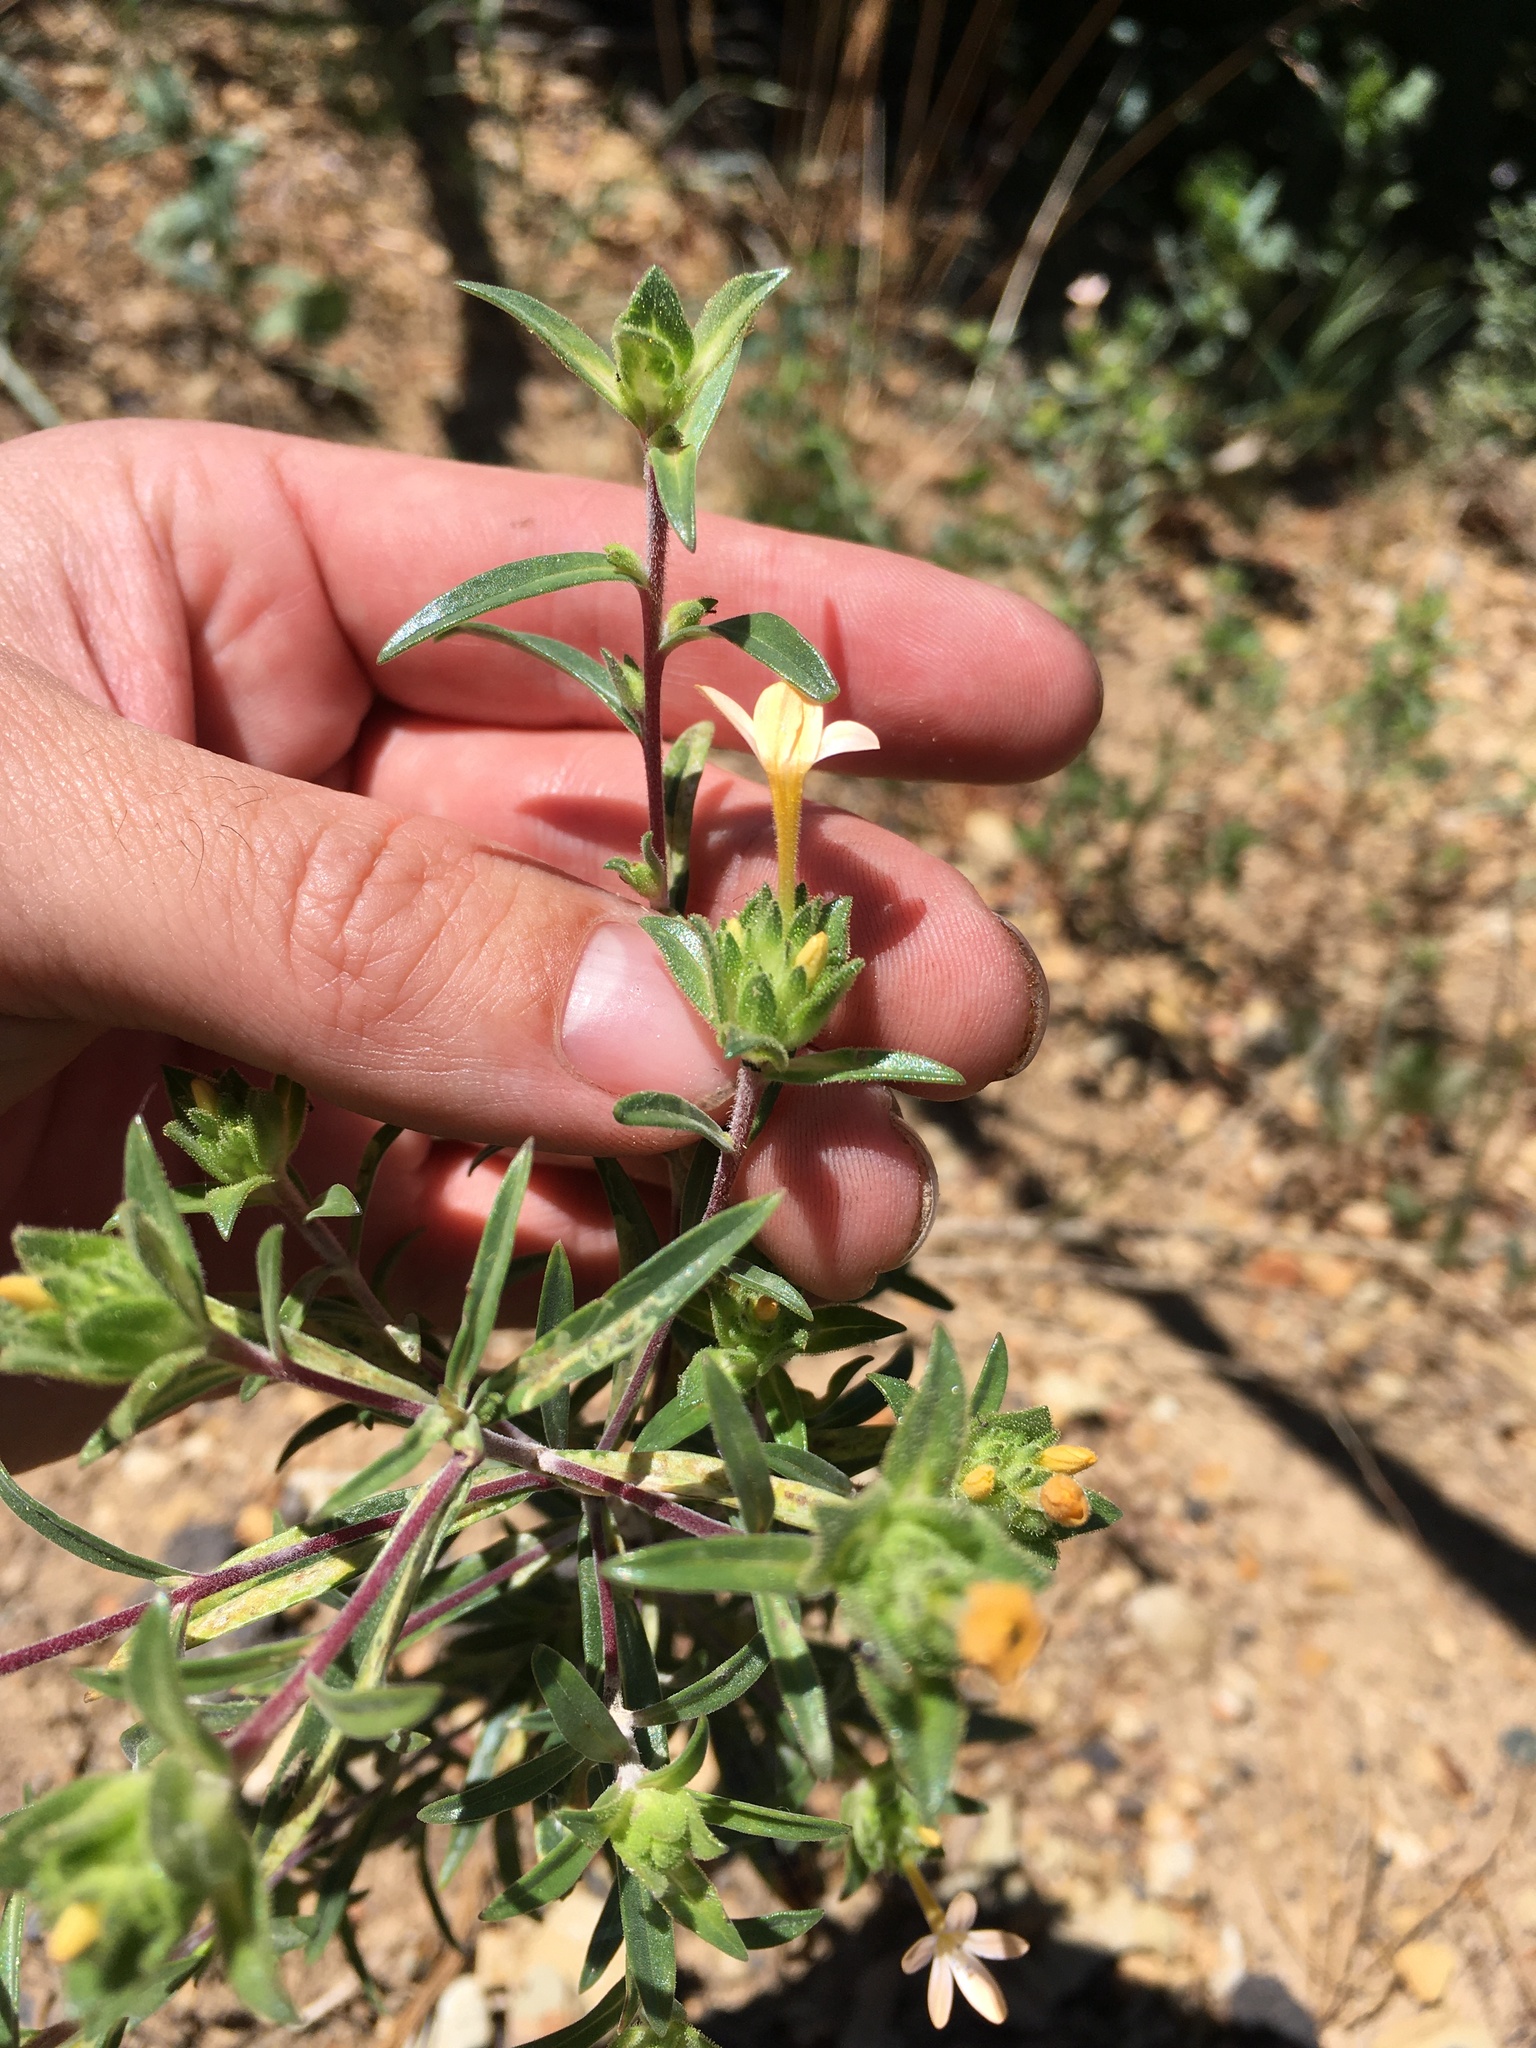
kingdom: Plantae
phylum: Tracheophyta
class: Magnoliopsida
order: Ericales
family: Polemoniaceae
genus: Collomia
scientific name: Collomia grandiflora
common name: California strawflower
